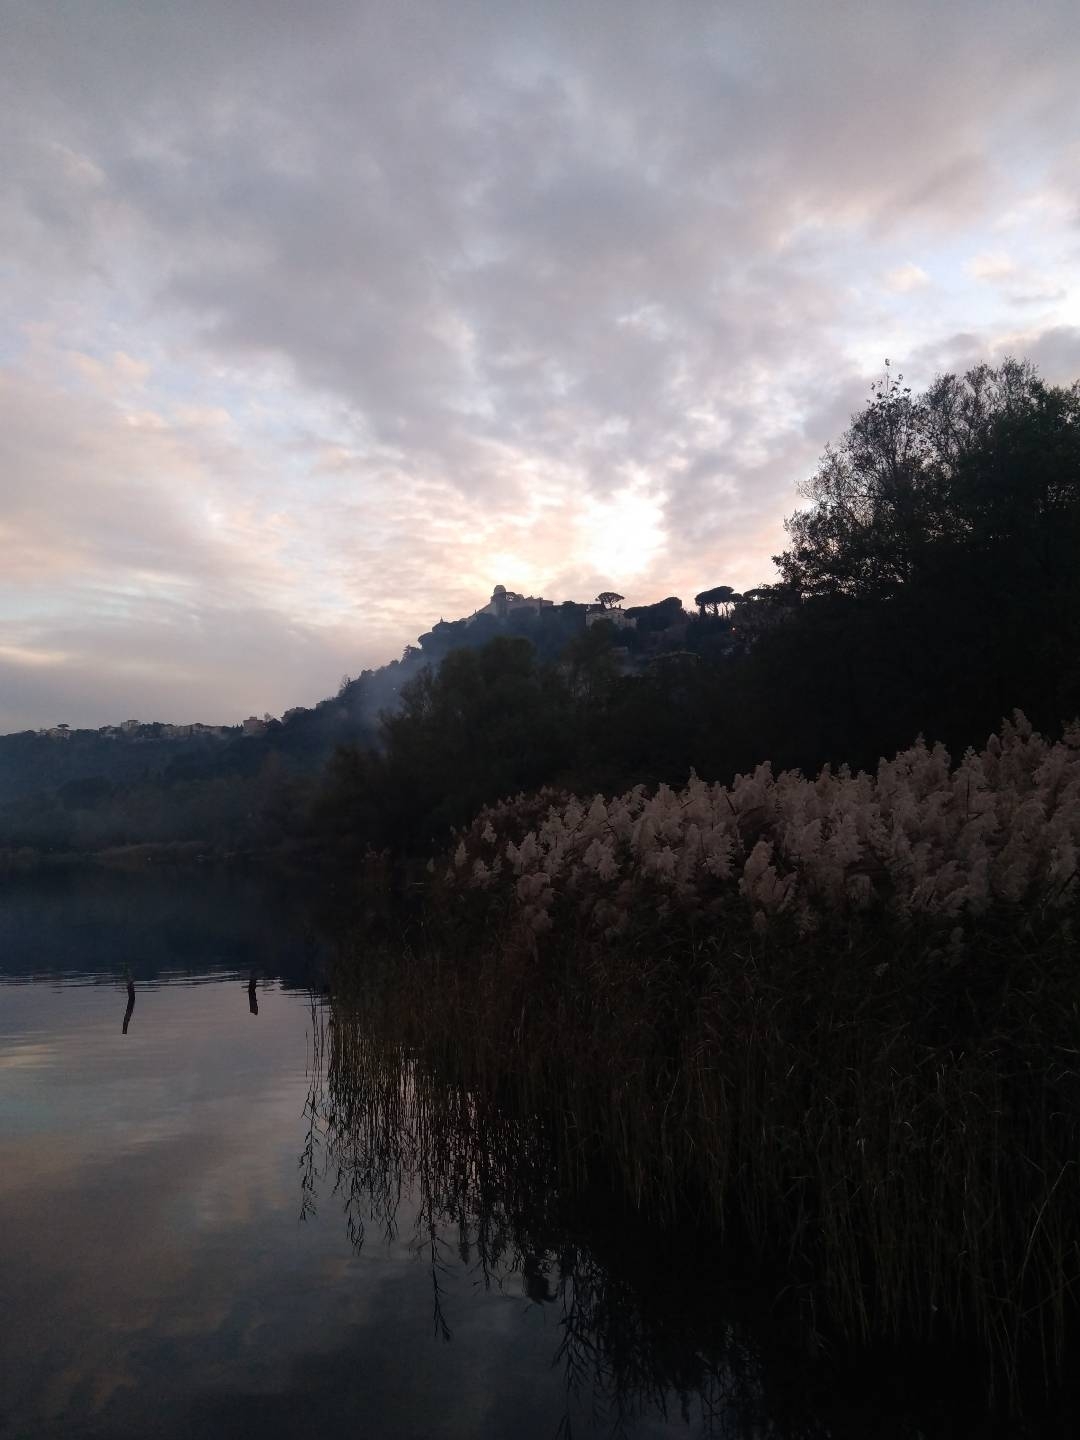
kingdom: Plantae
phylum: Tracheophyta
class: Liliopsida
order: Poales
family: Poaceae
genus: Phragmites
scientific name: Phragmites australis
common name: Common reed
